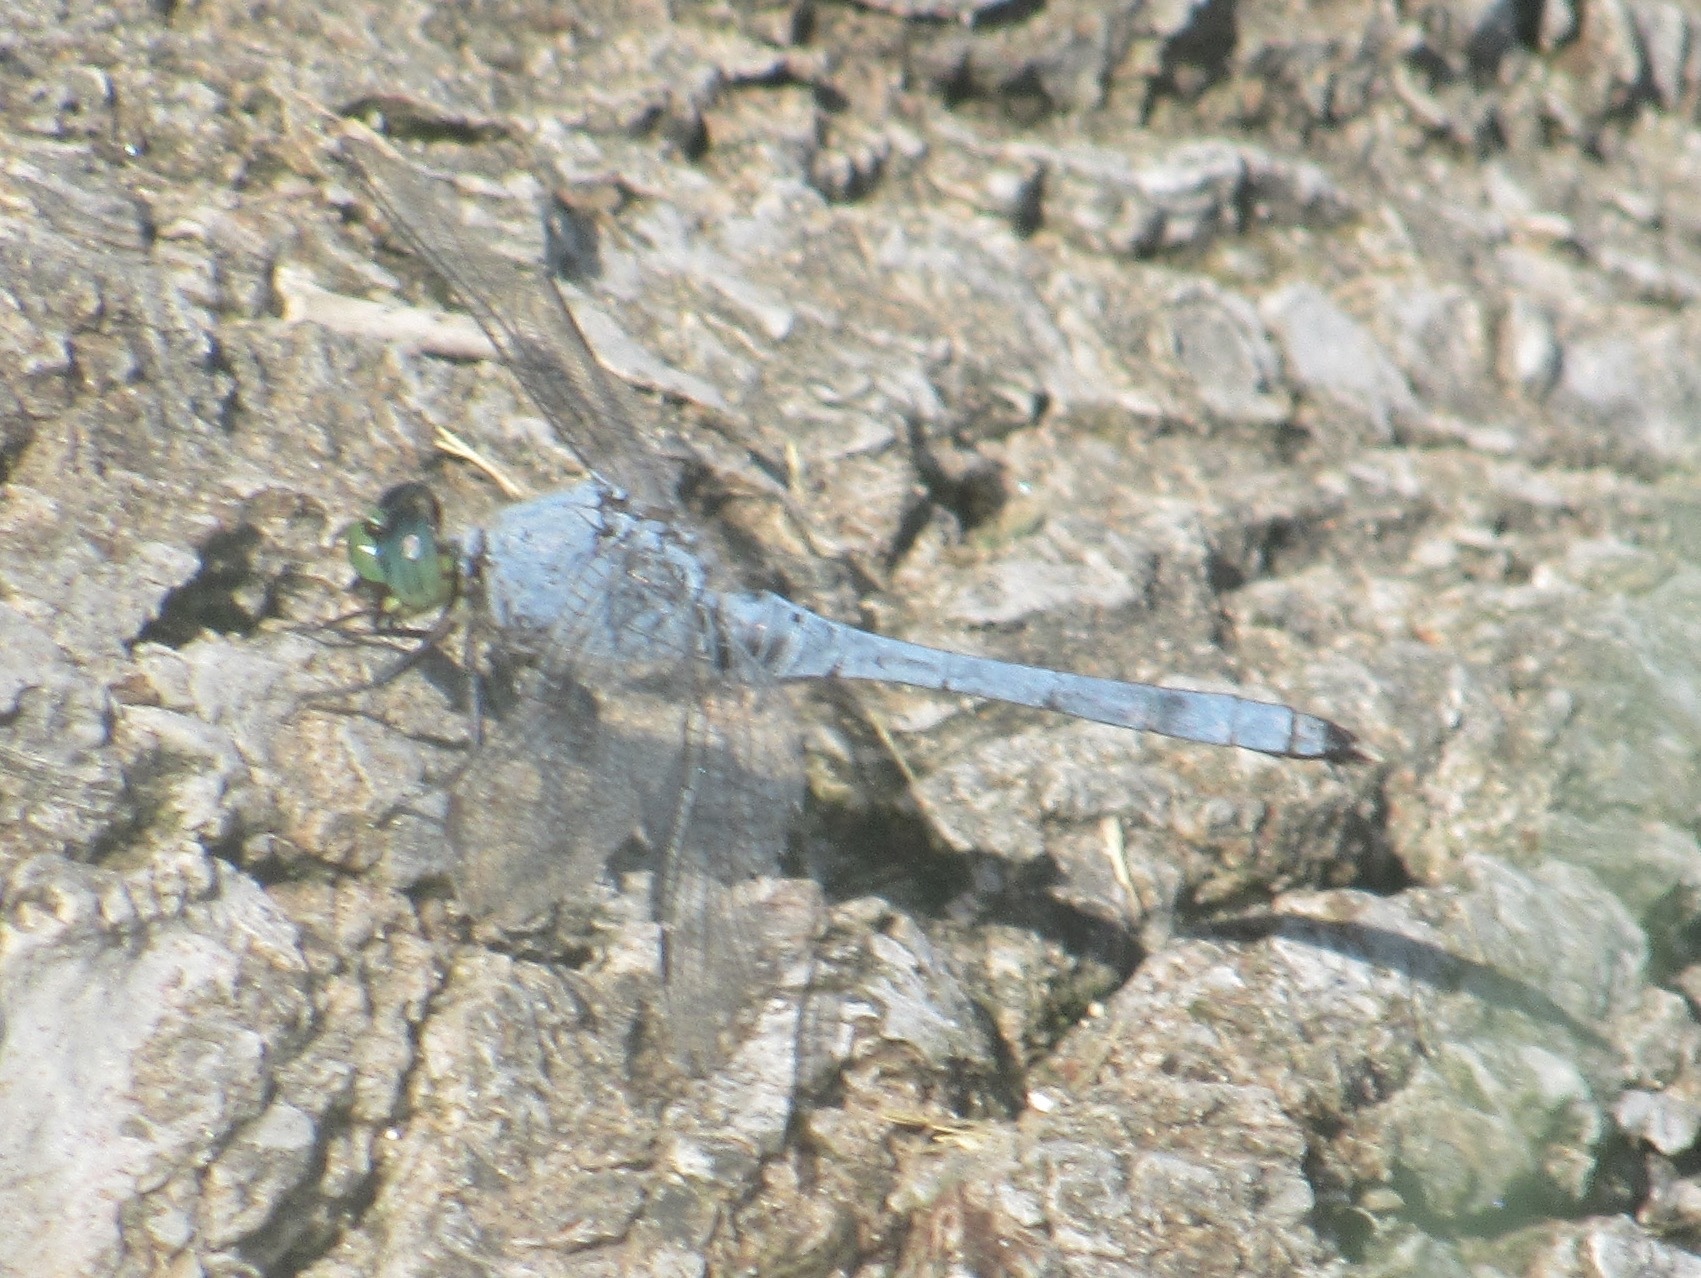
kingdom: Animalia
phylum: Arthropoda
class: Insecta
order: Odonata
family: Libellulidae
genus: Erythemis
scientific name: Erythemis simplicicollis
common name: Eastern pondhawk
